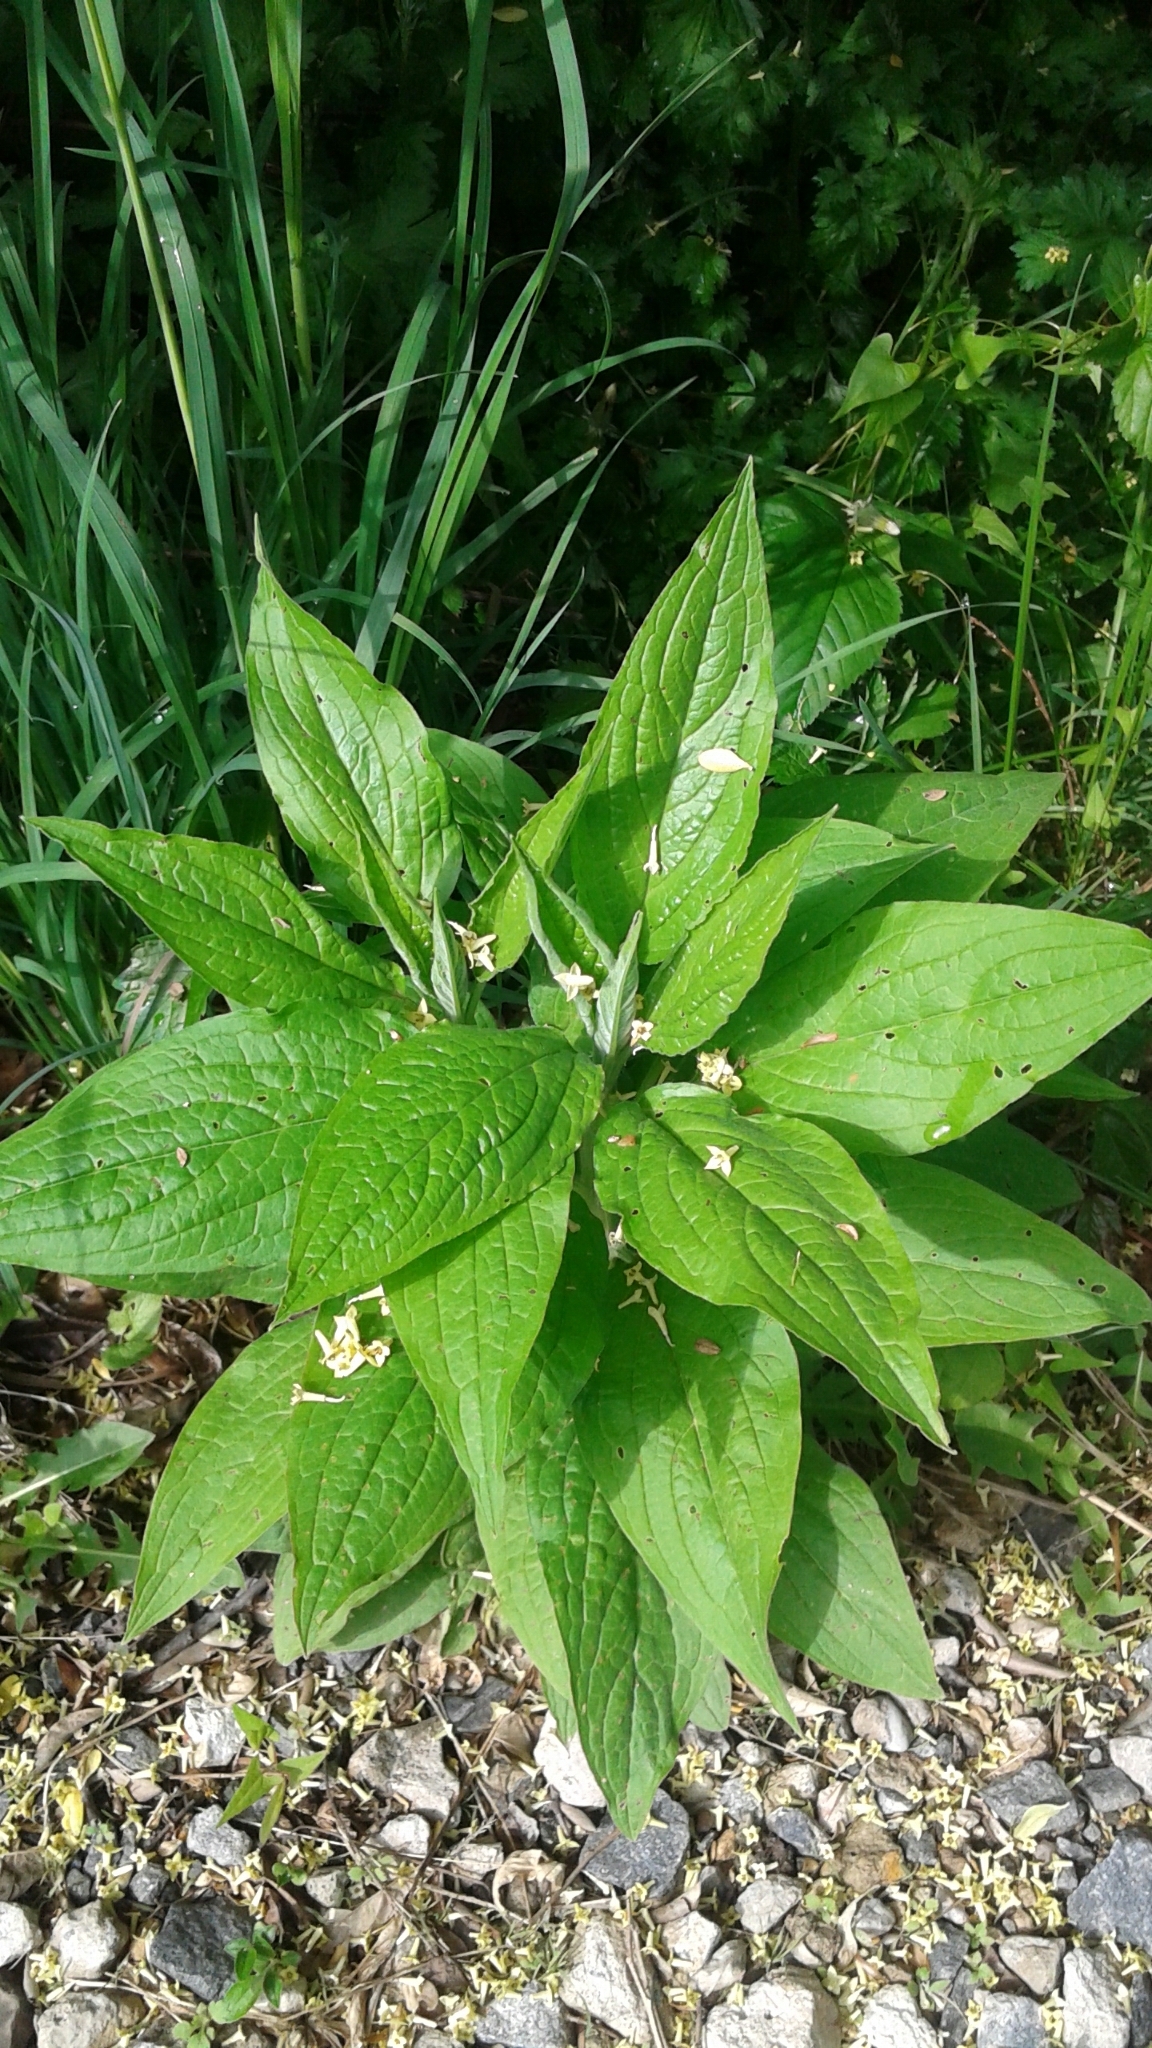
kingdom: Plantae
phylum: Tracheophyta
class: Magnoliopsida
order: Boraginales
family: Boraginaceae
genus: Hackelia
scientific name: Hackelia virginiana
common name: Beggar's-lice
